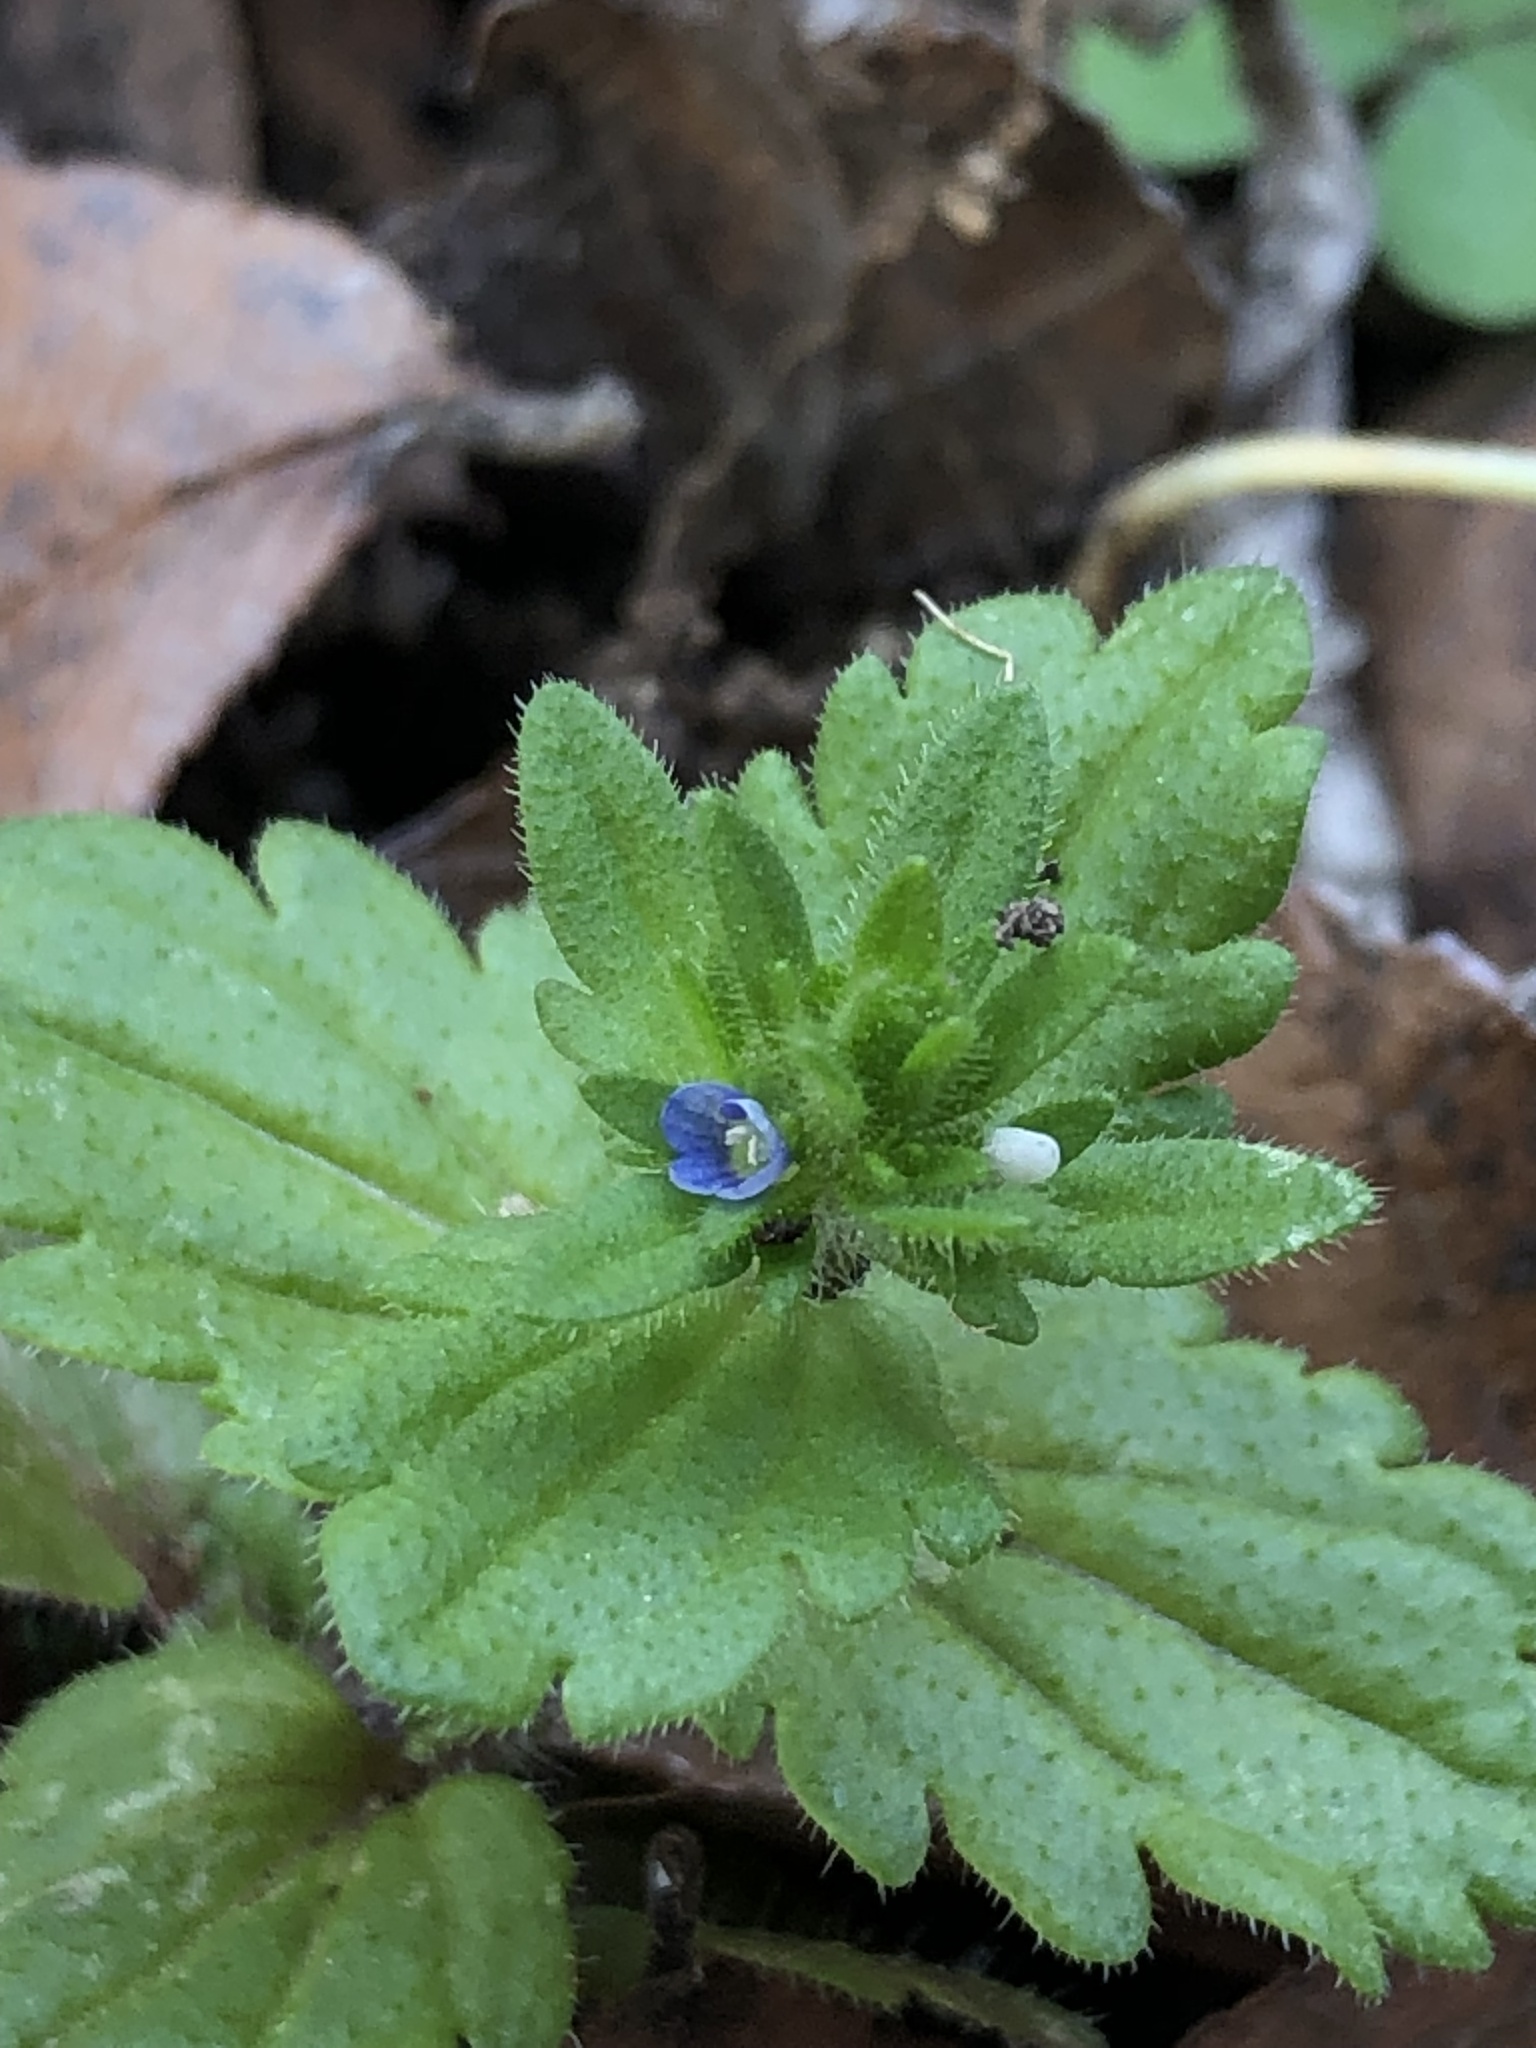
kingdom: Plantae
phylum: Tracheophyta
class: Magnoliopsida
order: Lamiales
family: Plantaginaceae
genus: Veronica
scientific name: Veronica arvensis
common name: Corn speedwell
